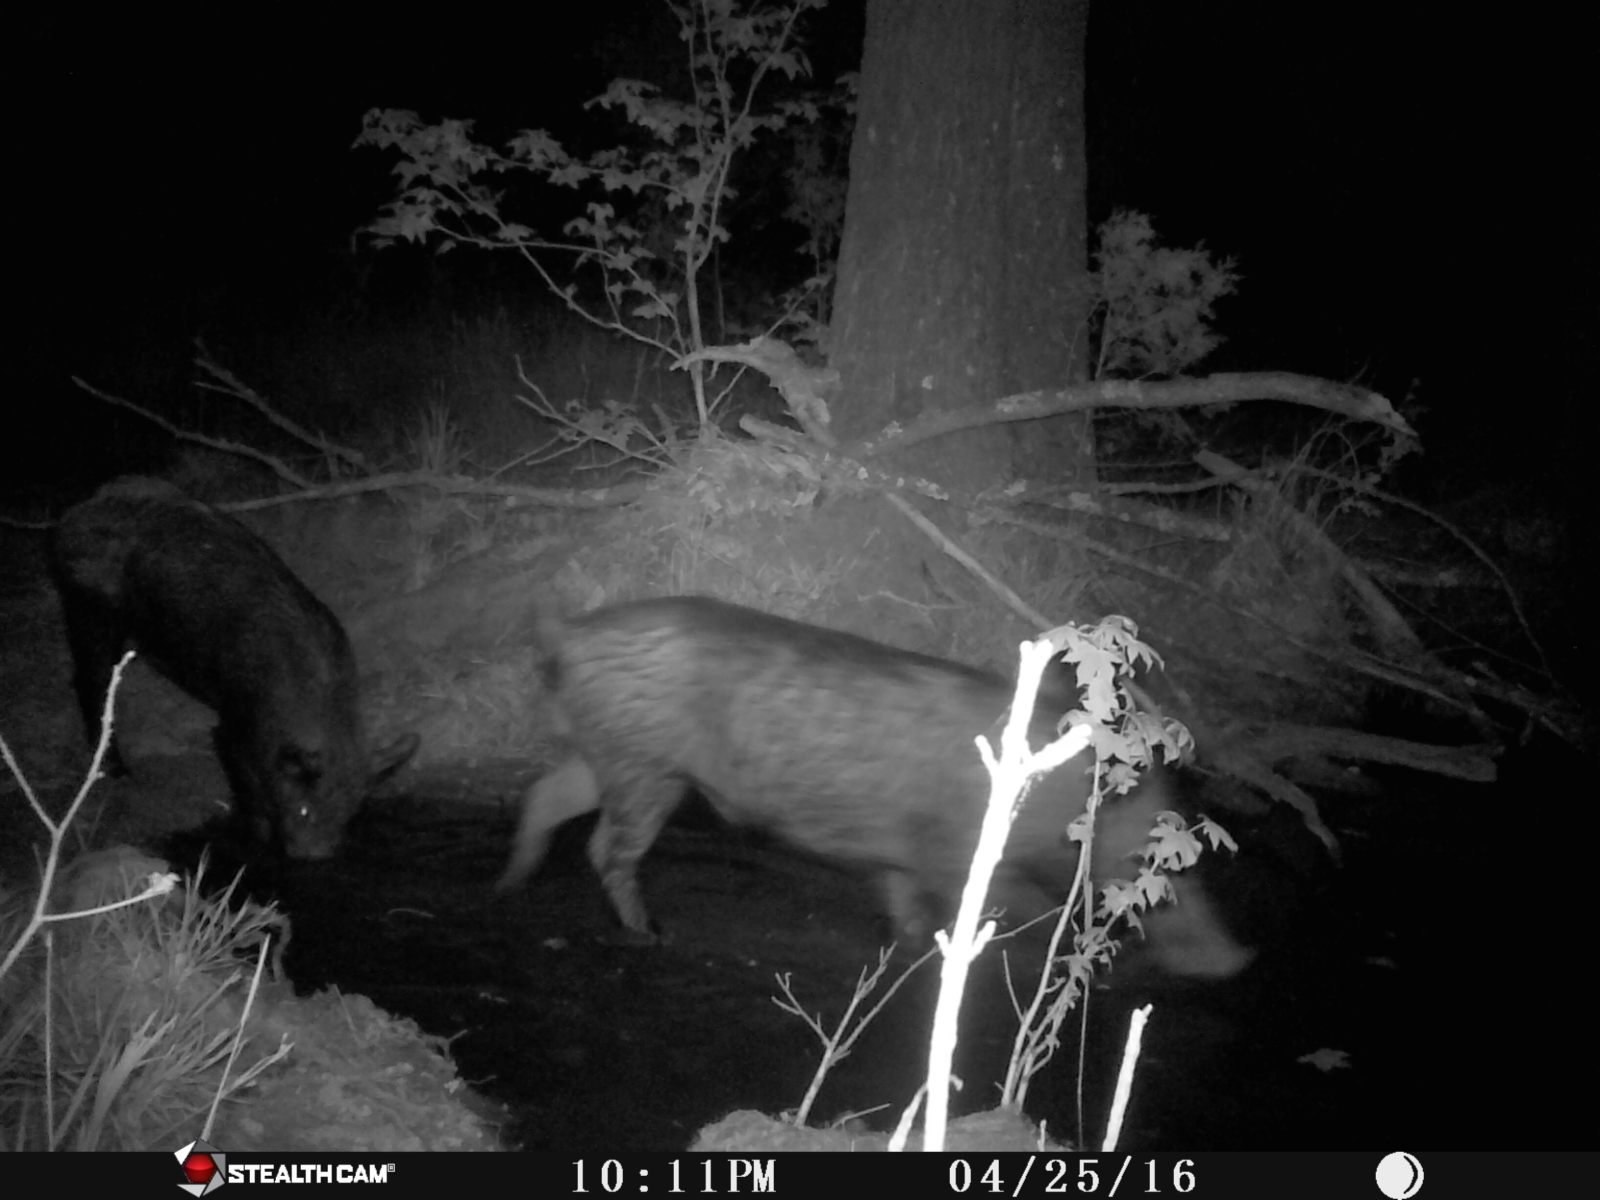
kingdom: Animalia
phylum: Chordata
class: Mammalia
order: Artiodactyla
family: Suidae
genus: Sus
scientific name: Sus scrofa
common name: Wild boar
